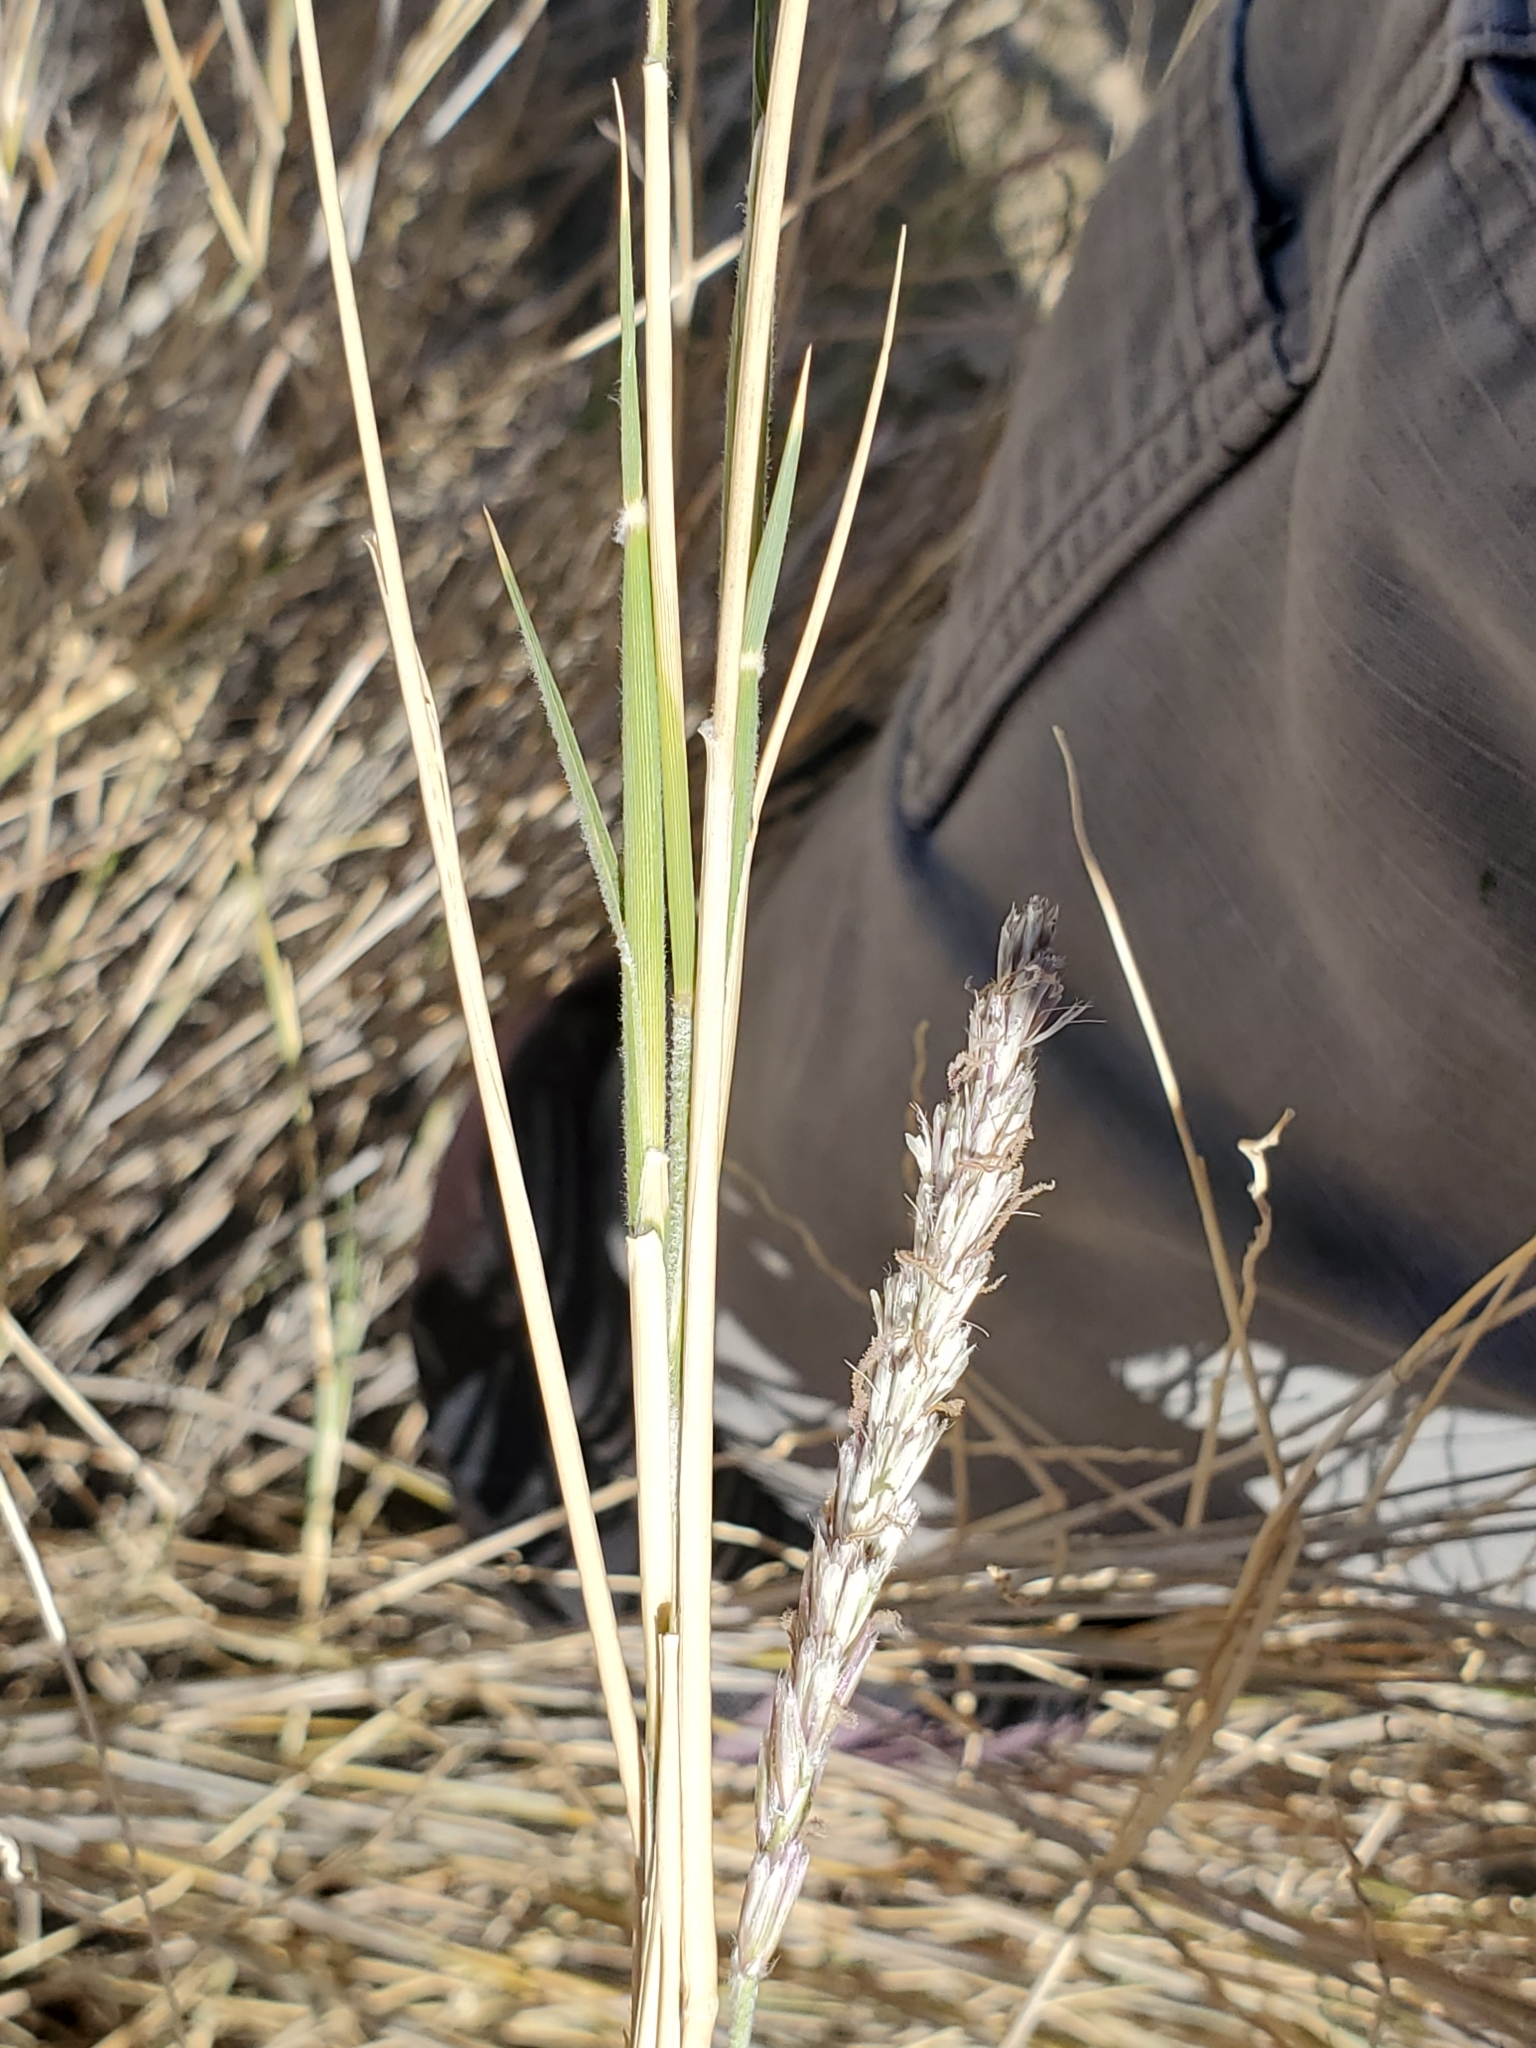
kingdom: Plantae
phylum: Tracheophyta
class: Liliopsida
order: Poales
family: Poaceae
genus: Hilaria
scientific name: Hilaria rigida
